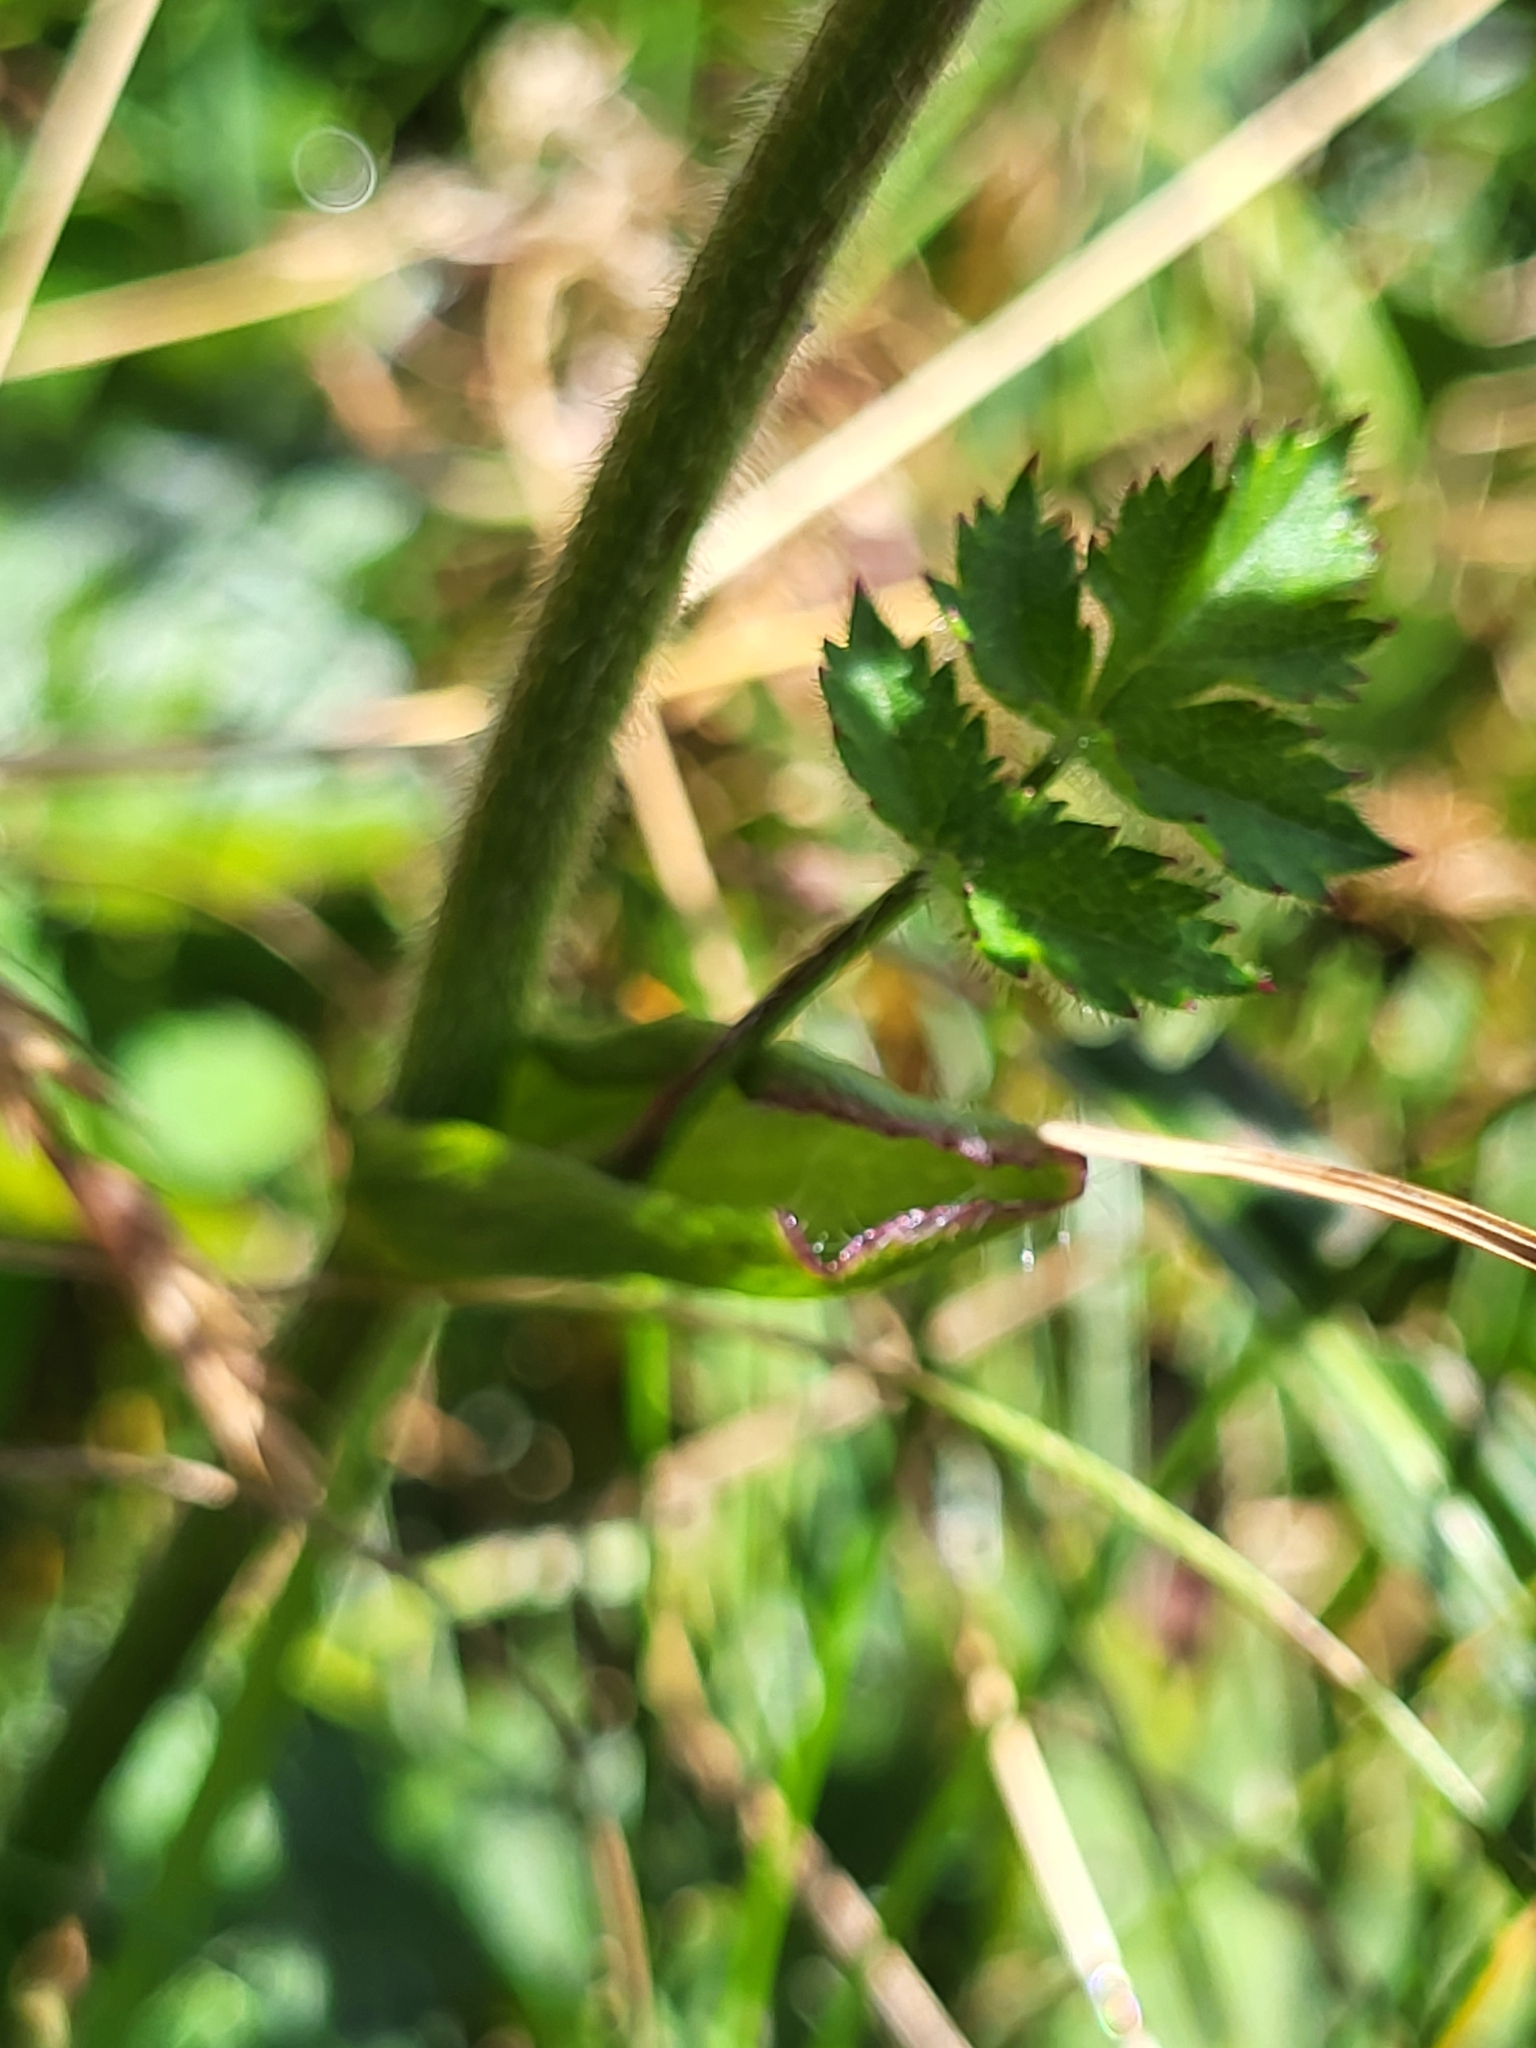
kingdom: Plantae
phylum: Tracheophyta
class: Magnoliopsida
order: Apiales
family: Apiaceae
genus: Heracleum
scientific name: Heracleum austriacum
